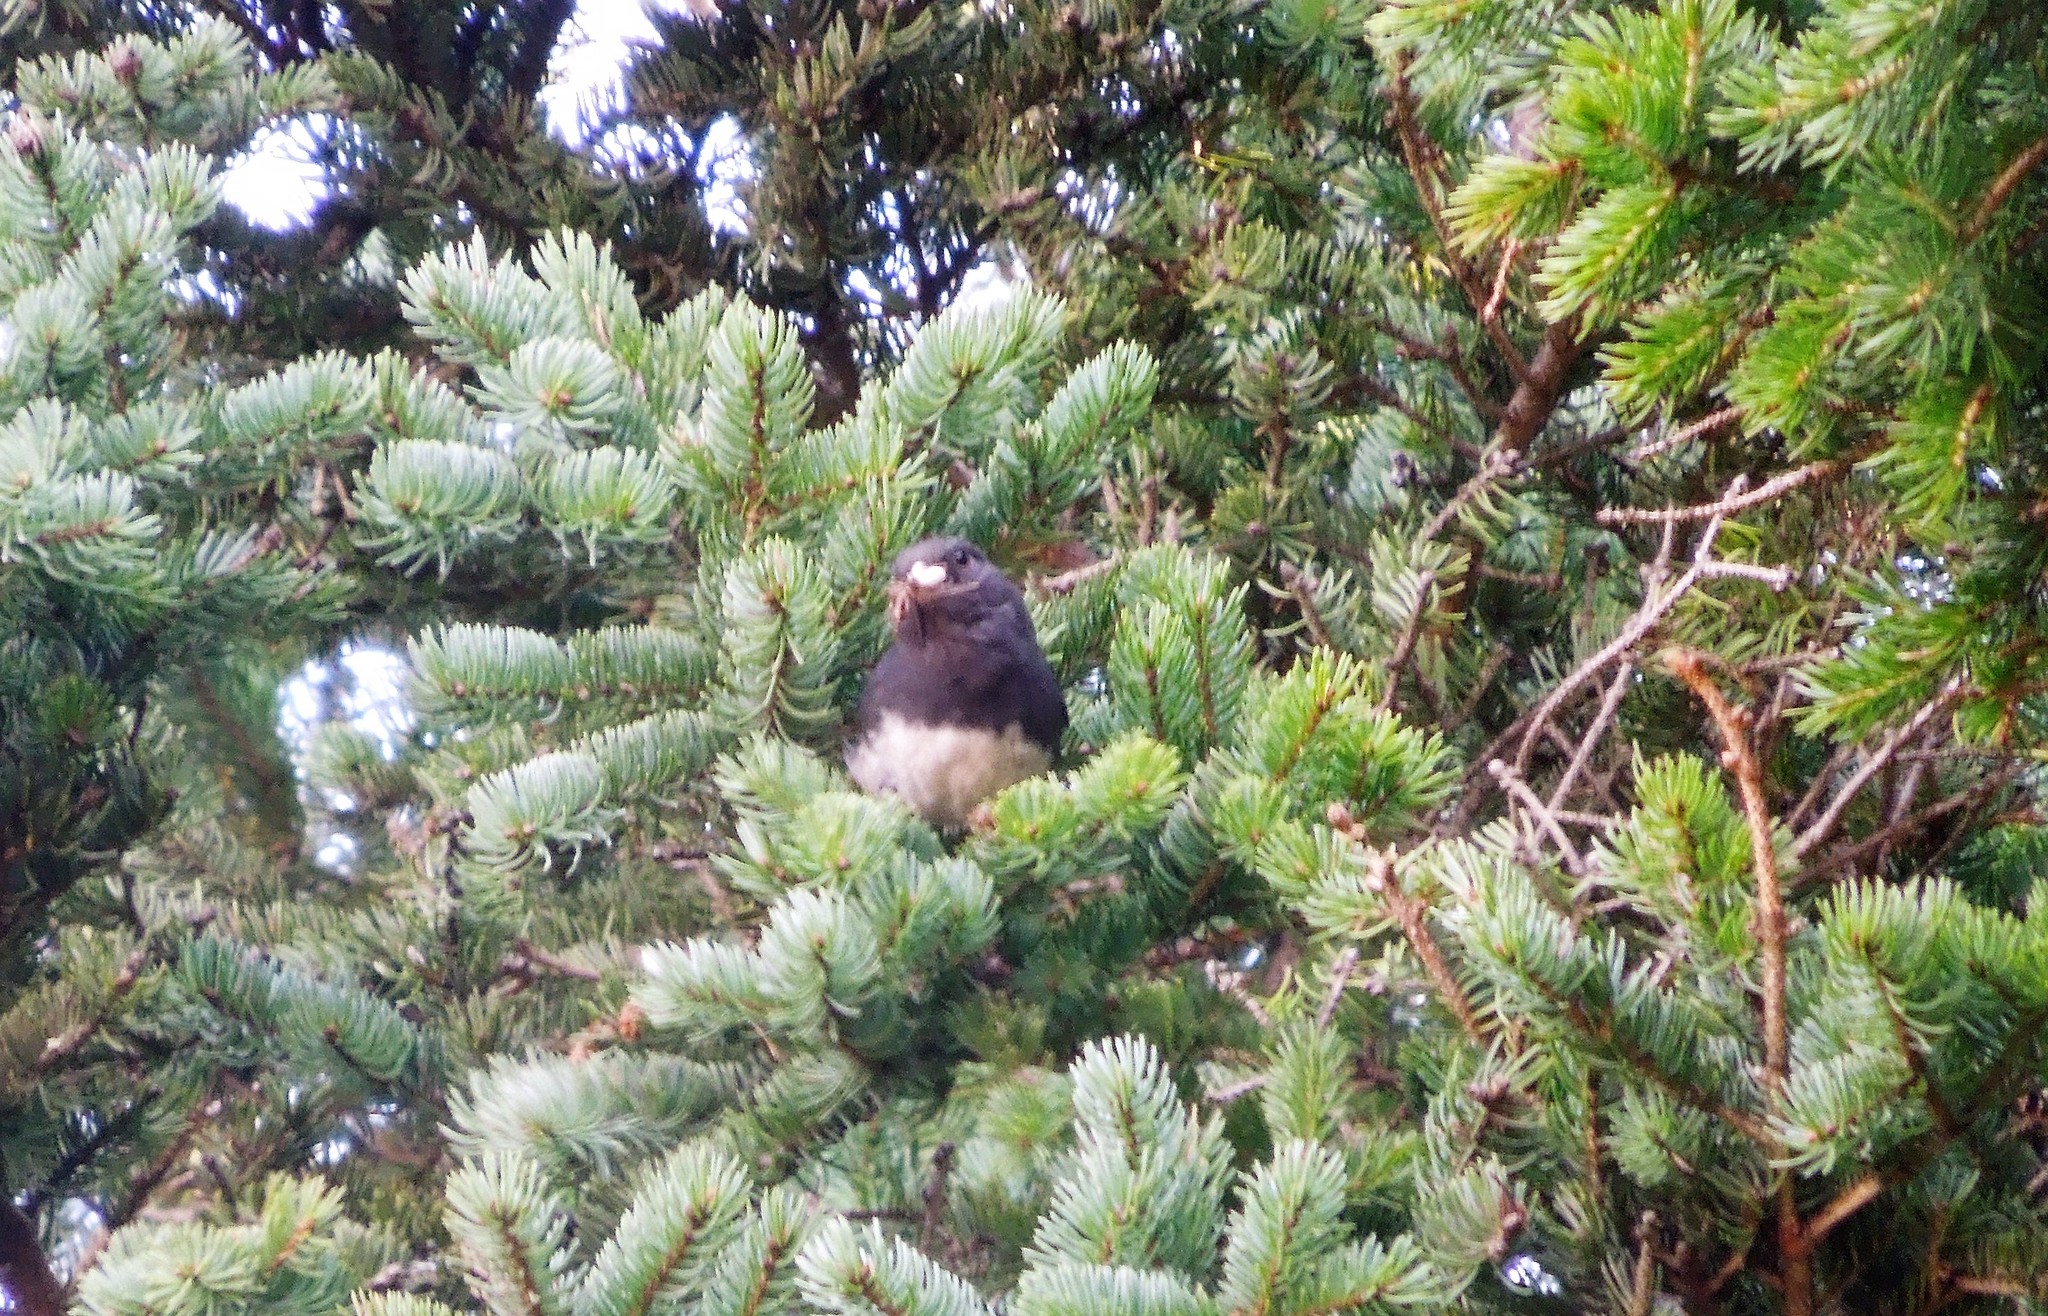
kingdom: Animalia
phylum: Chordata
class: Aves
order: Passeriformes
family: Passerellidae
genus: Junco
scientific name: Junco hyemalis
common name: Dark-eyed junco
